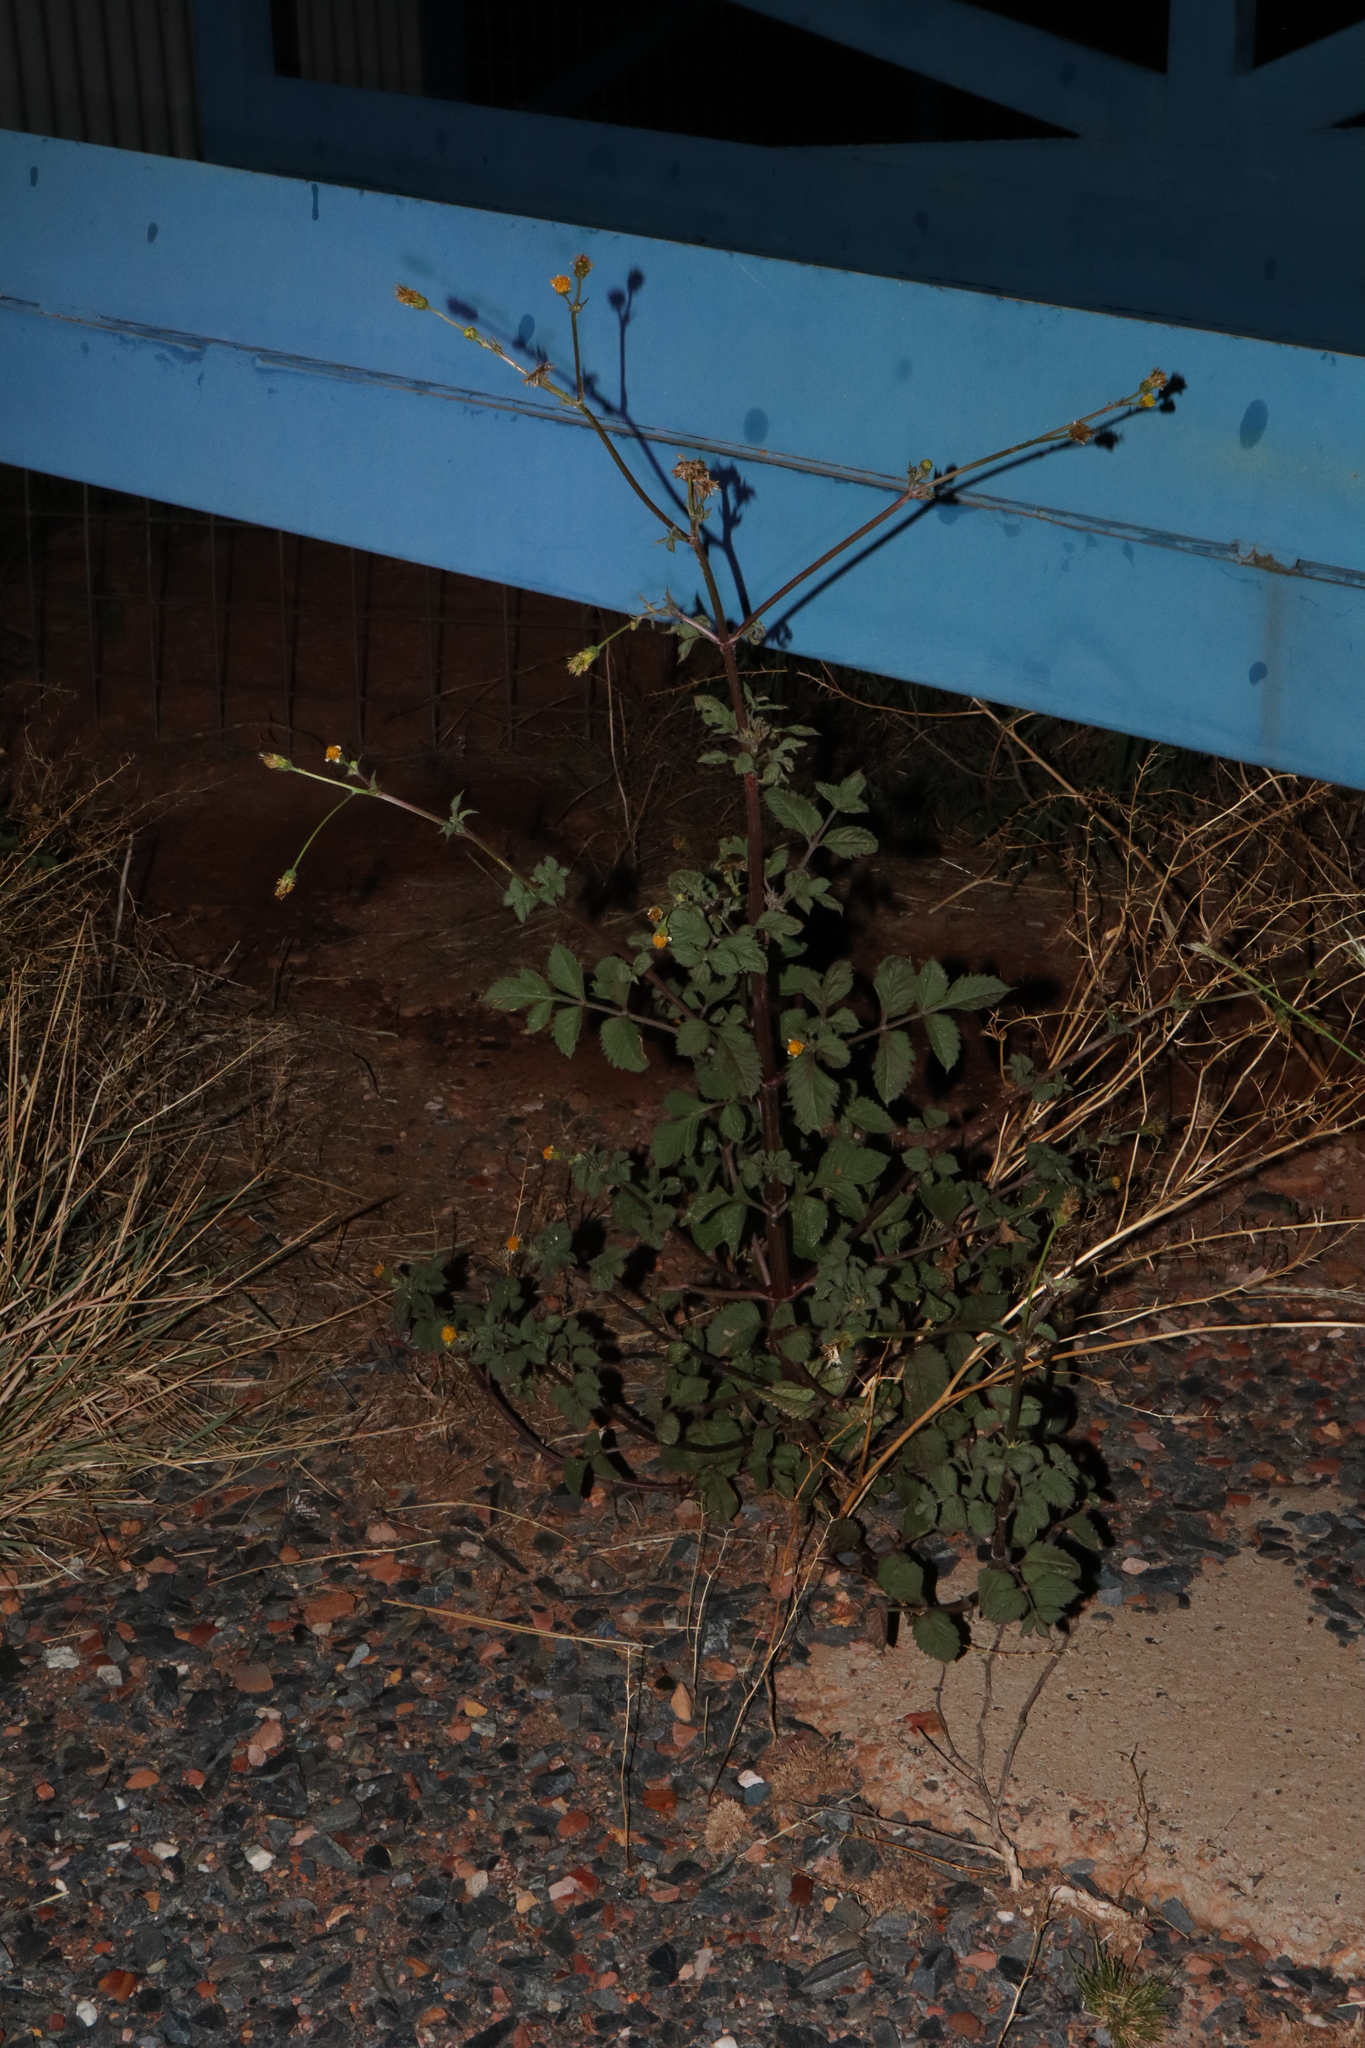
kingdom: Plantae
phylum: Tracheophyta
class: Magnoliopsida
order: Asterales
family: Asteraceae
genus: Bidens
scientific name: Bidens pilosa
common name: Black-jack
